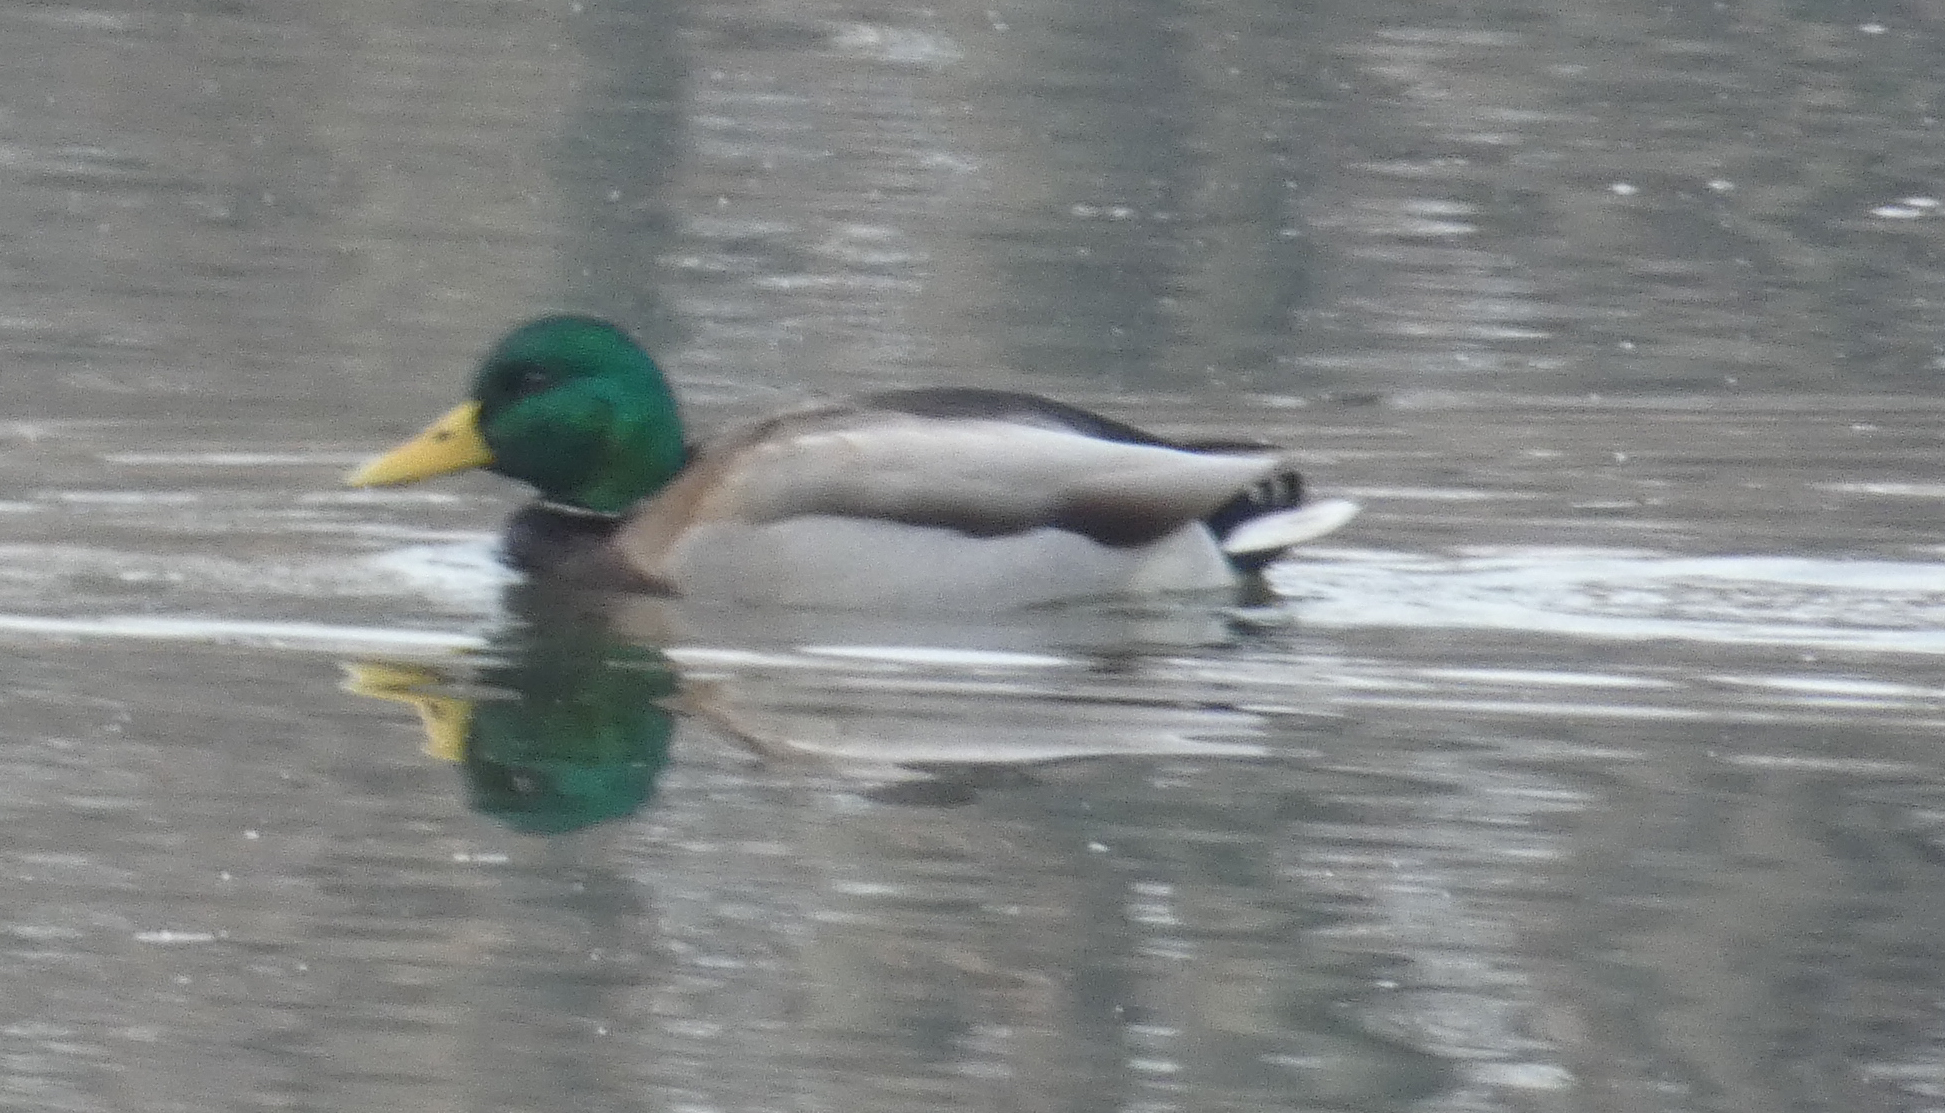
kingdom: Animalia
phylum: Chordata
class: Aves
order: Anseriformes
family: Anatidae
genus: Anas
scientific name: Anas platyrhynchos
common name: Mallard
